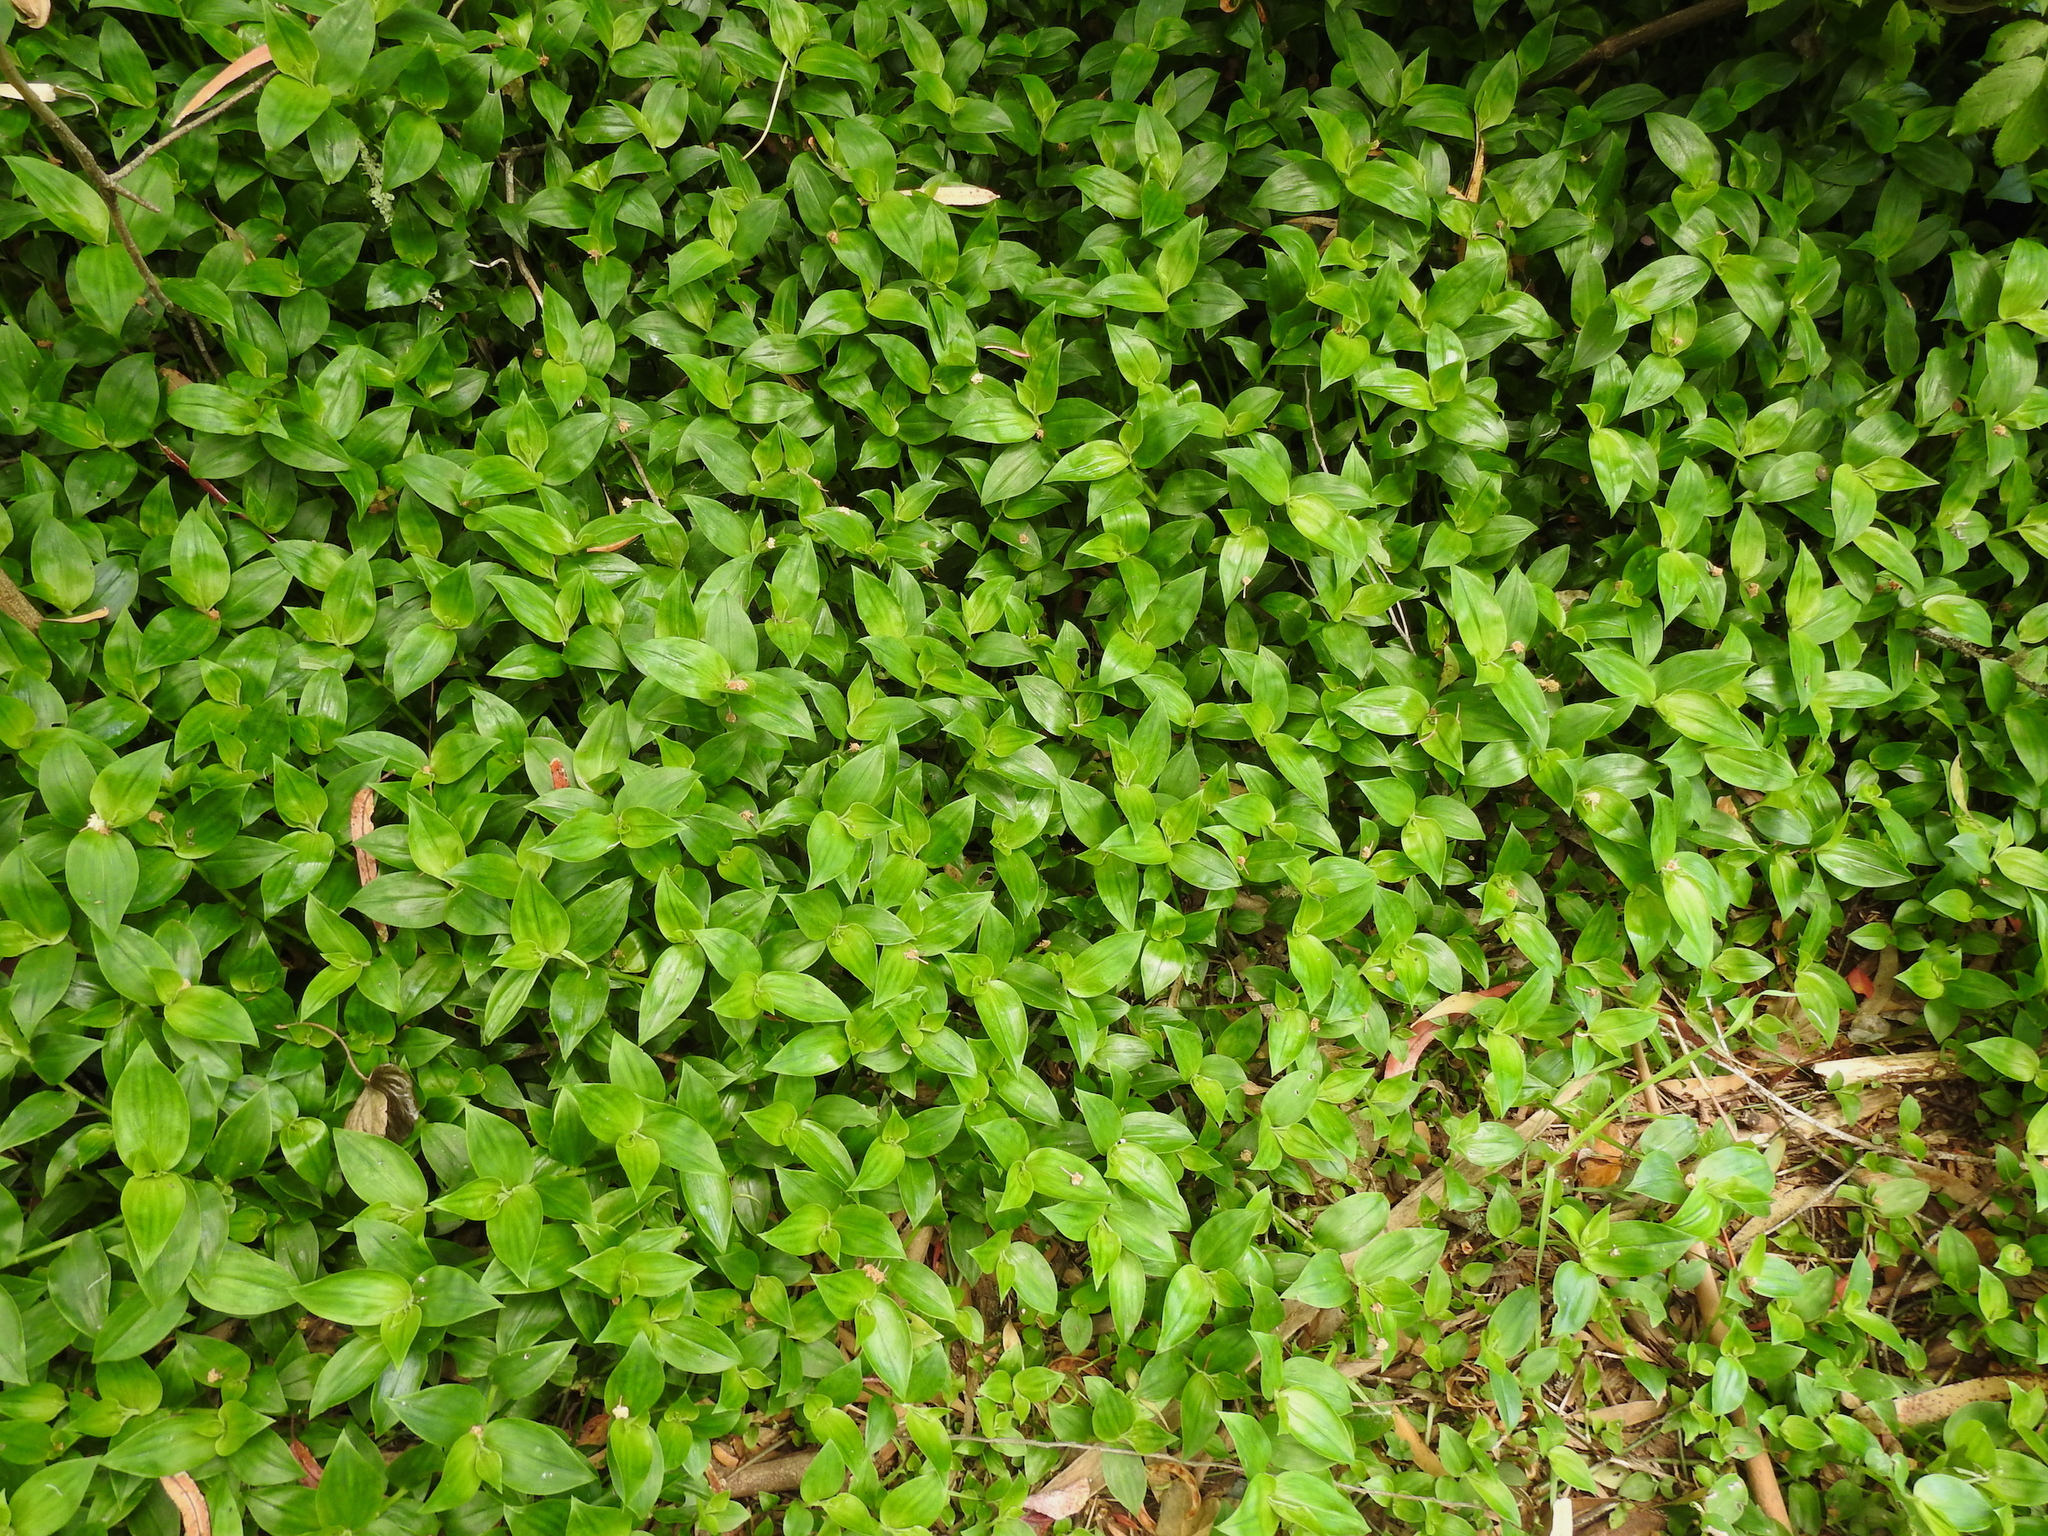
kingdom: Plantae
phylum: Tracheophyta
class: Liliopsida
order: Commelinales
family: Commelinaceae
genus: Tradescantia
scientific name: Tradescantia fluminensis
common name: Wandering-jew
